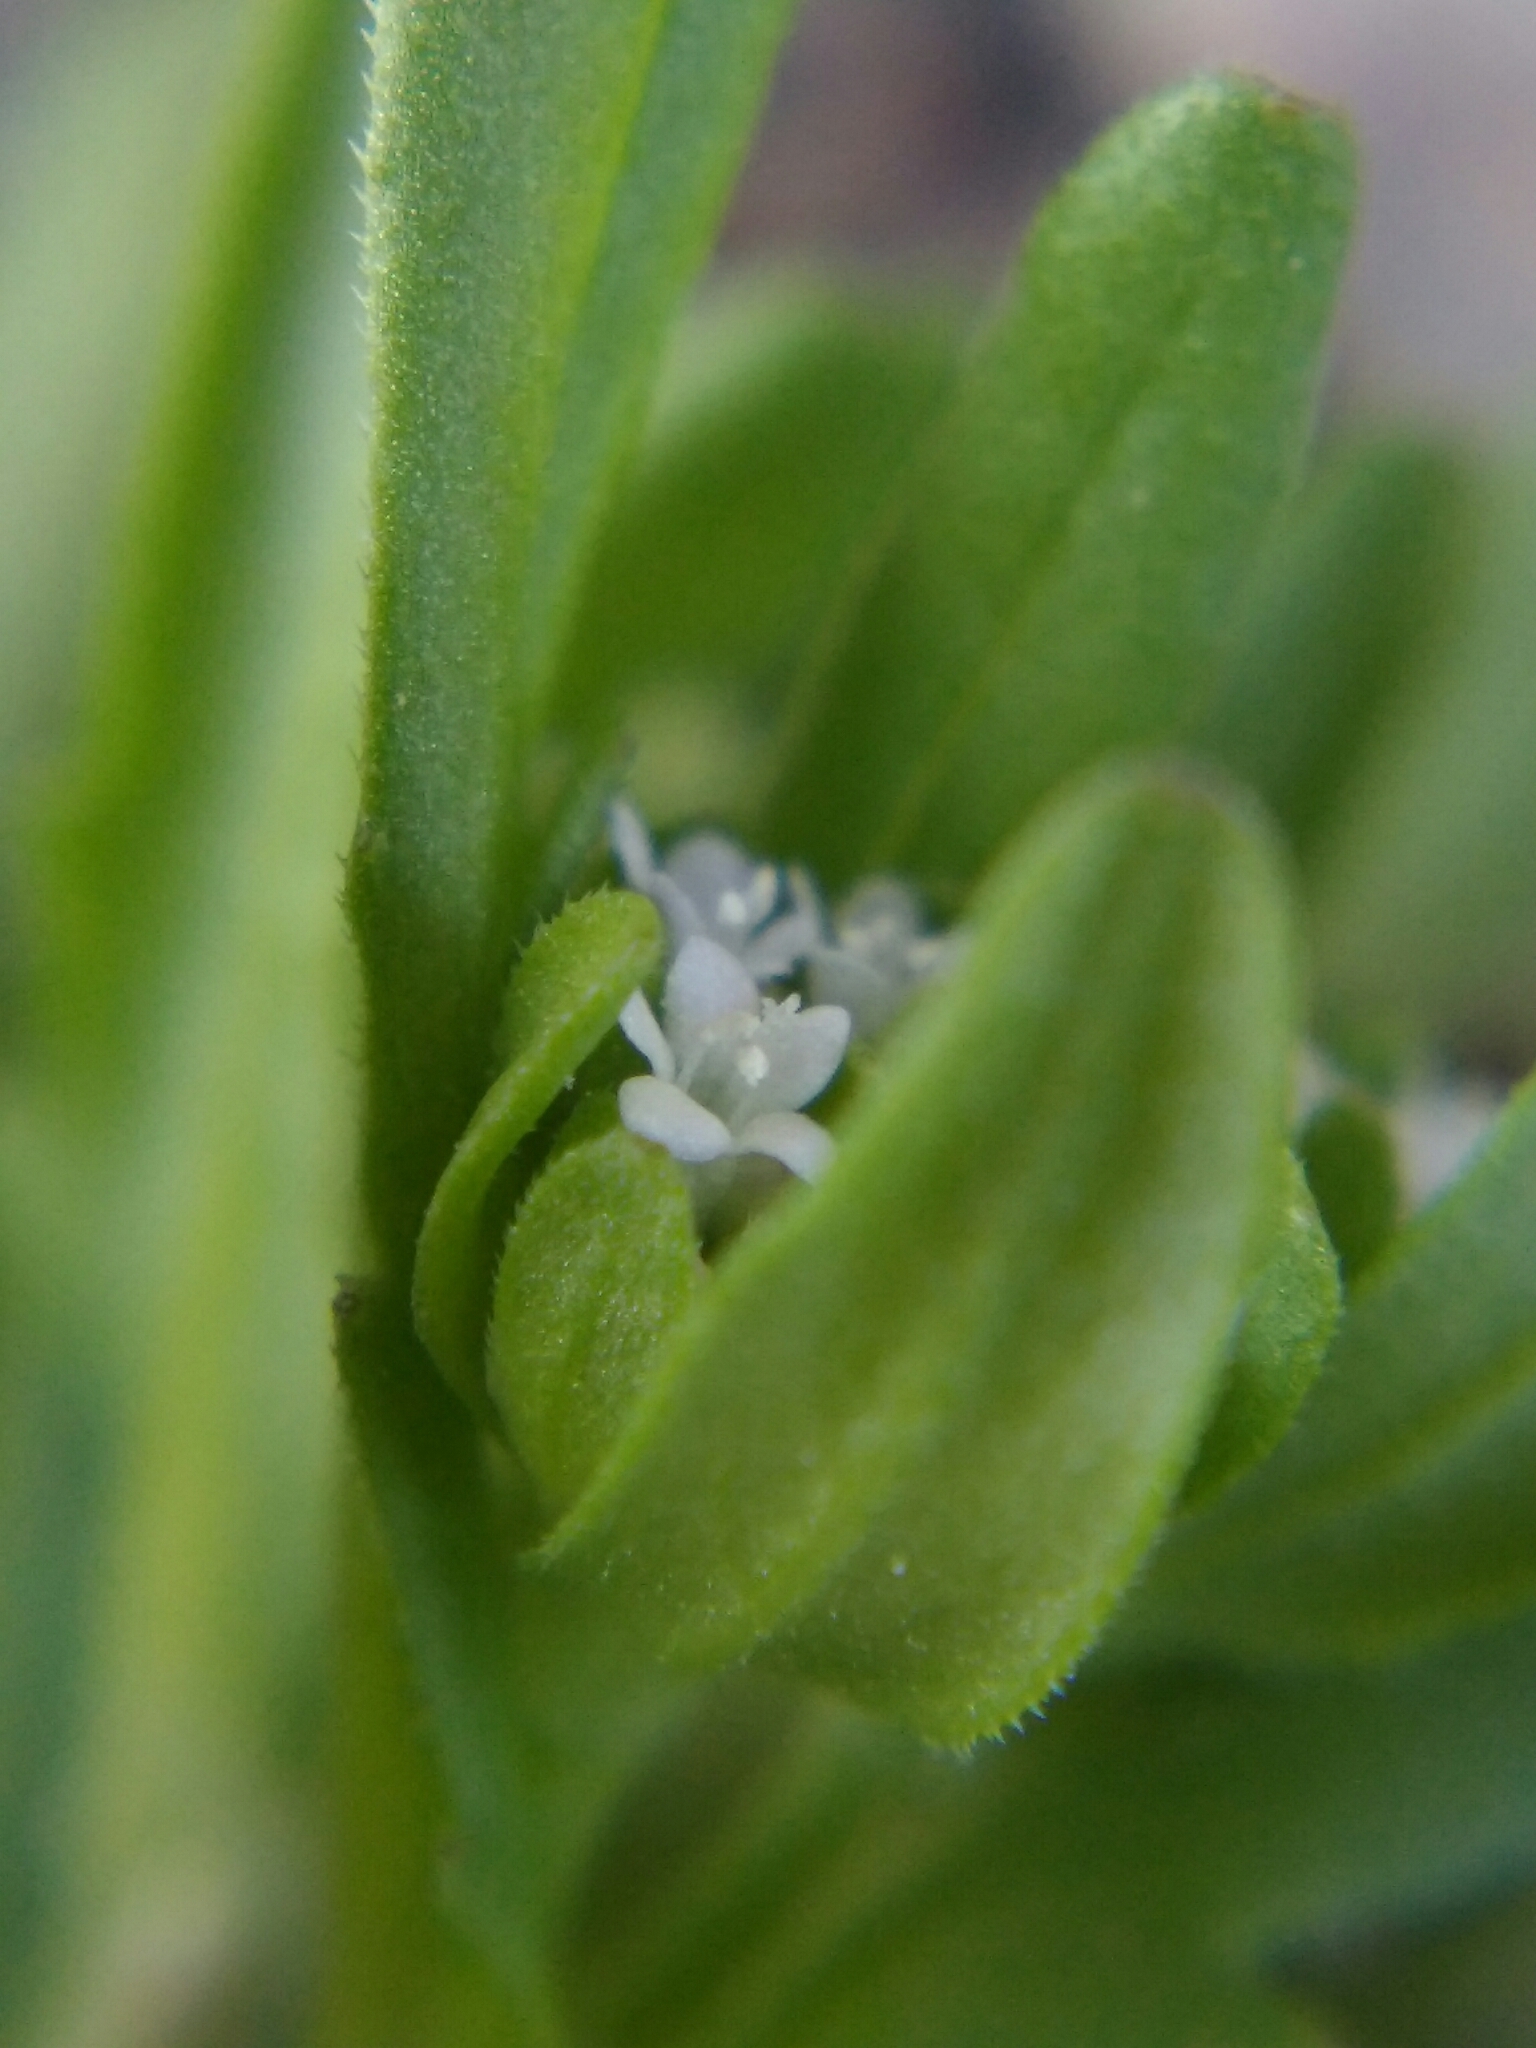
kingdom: Plantae
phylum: Tracheophyta
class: Magnoliopsida
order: Dipsacales
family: Caprifoliaceae
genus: Valerianella
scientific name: Valerianella locusta
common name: Common cornsalad
